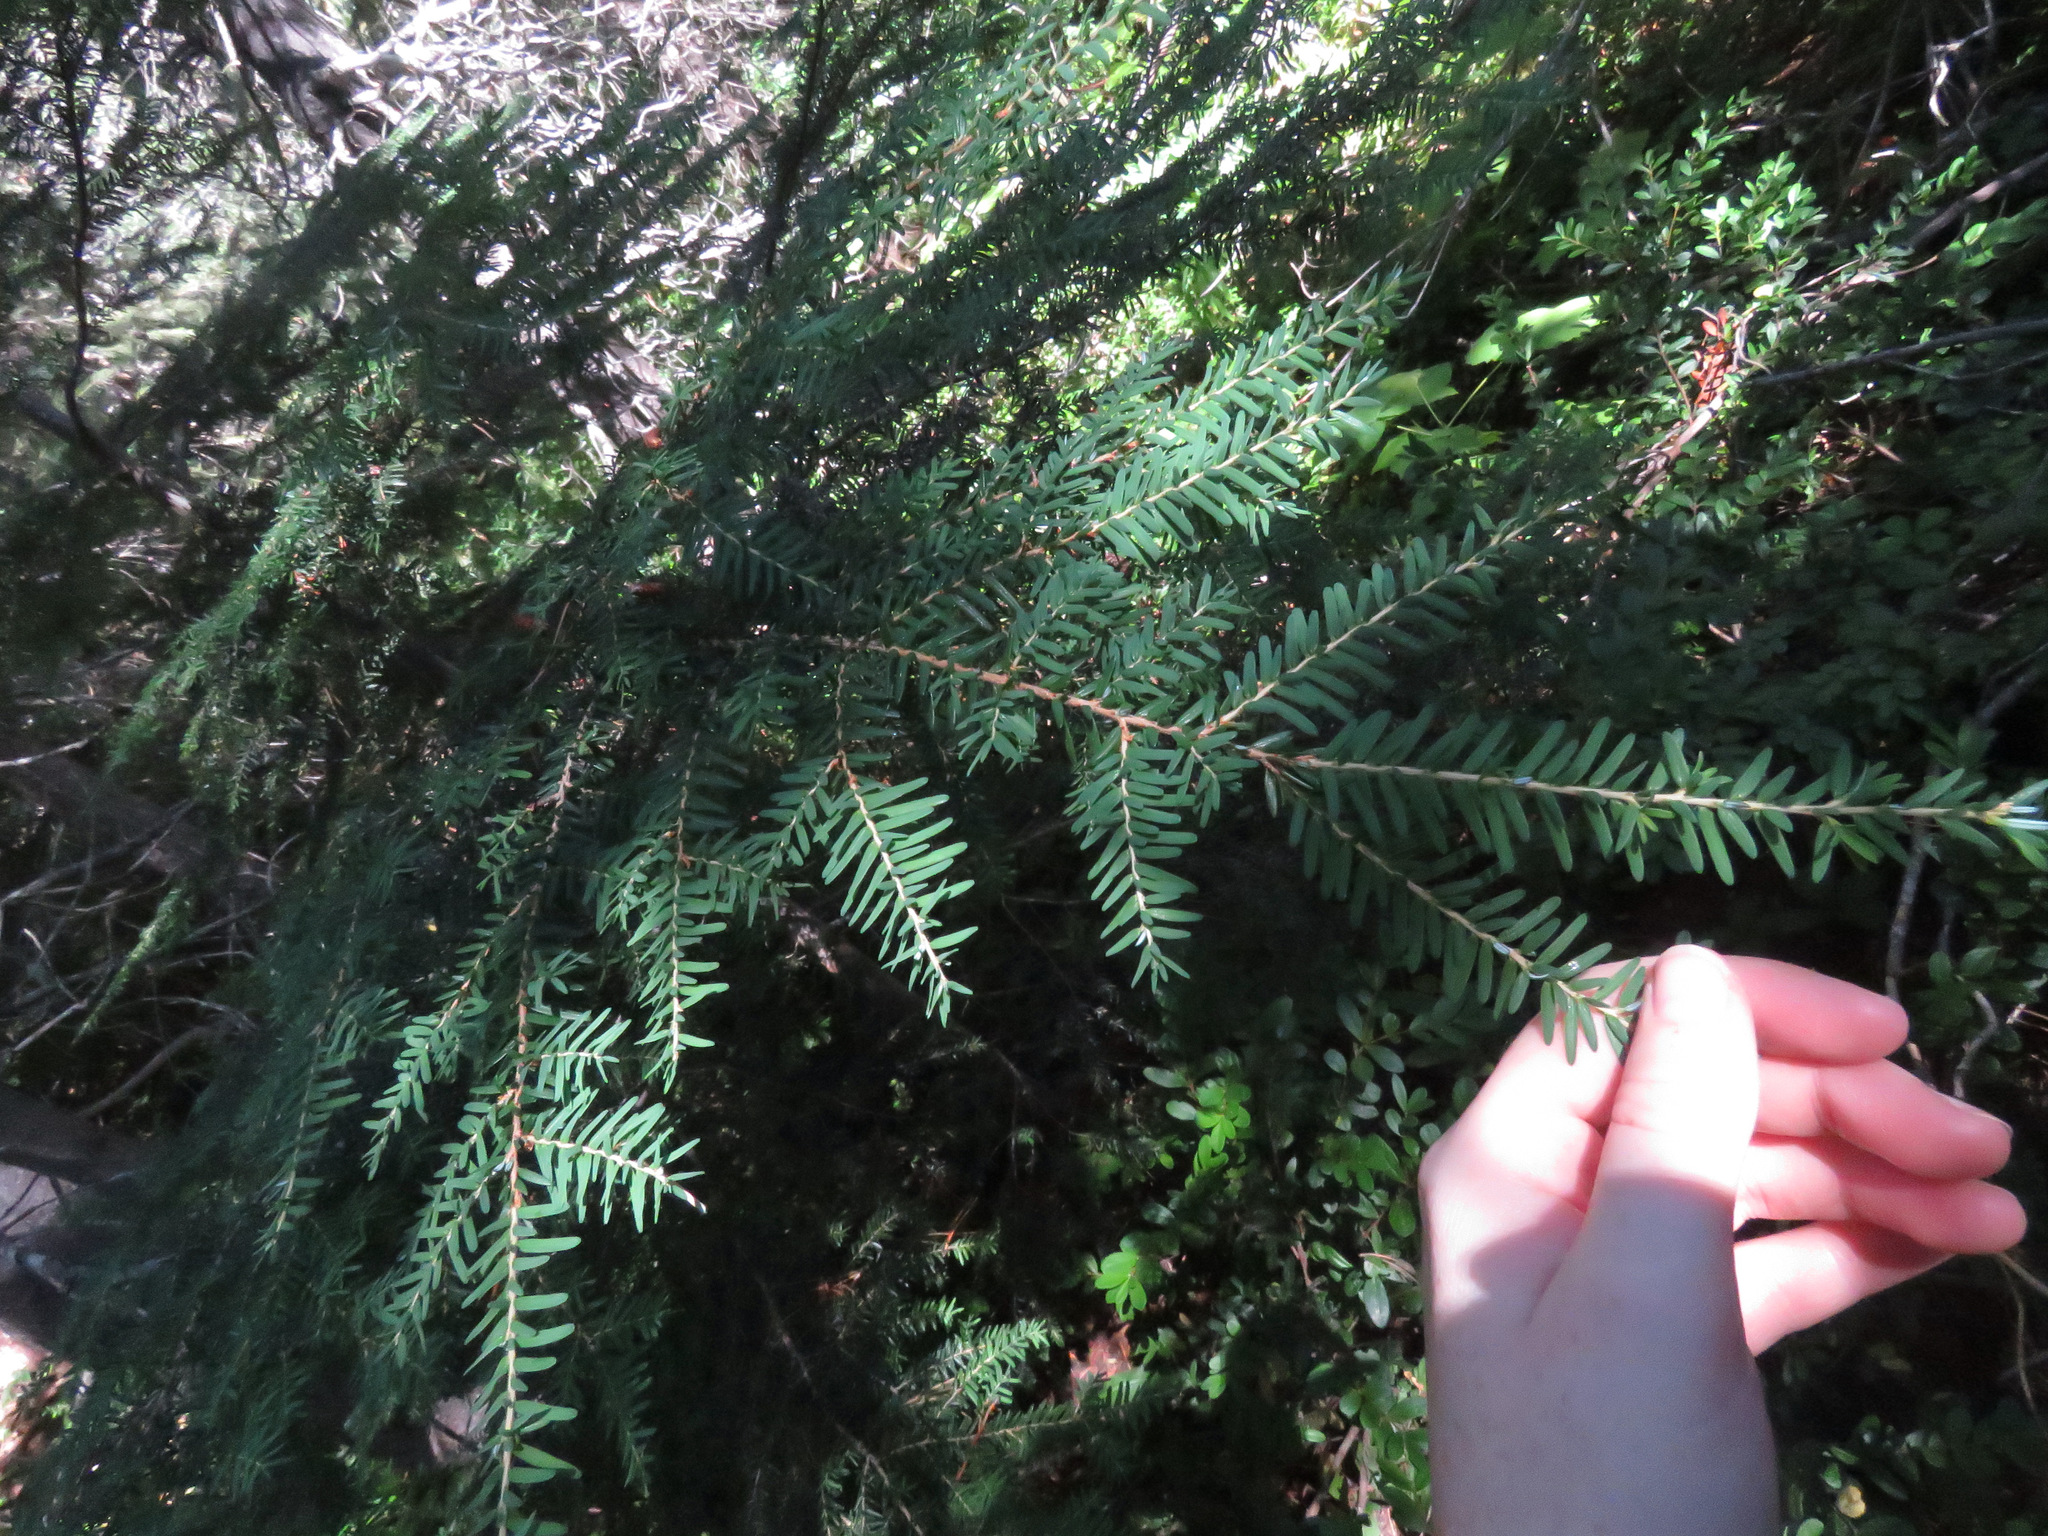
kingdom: Plantae
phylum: Tracheophyta
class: Pinopsida
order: Pinales
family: Pinaceae
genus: Tsuga
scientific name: Tsuga heterophylla
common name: Western hemlock
